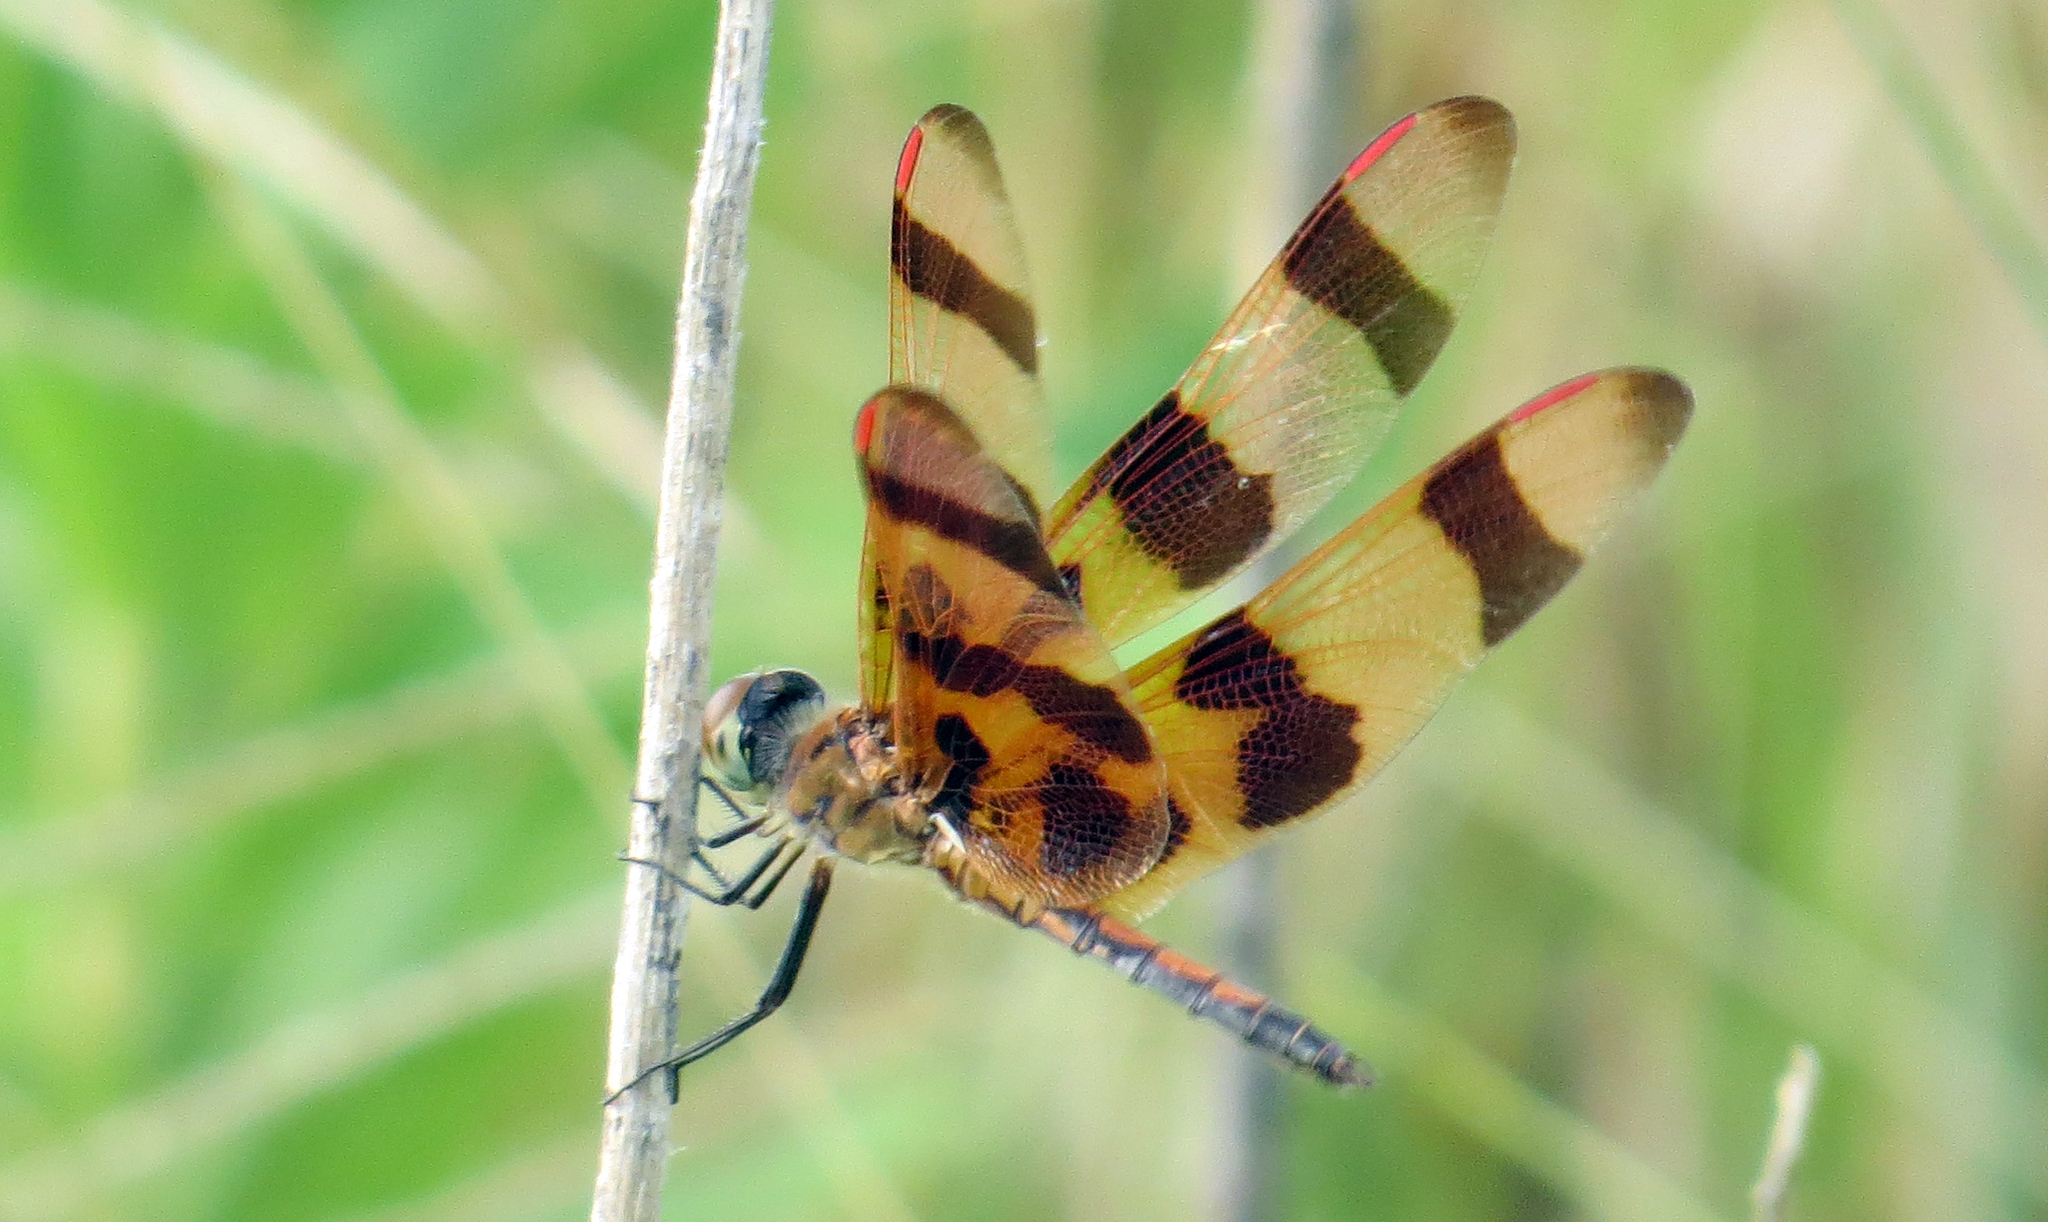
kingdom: Animalia
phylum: Arthropoda
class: Insecta
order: Odonata
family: Libellulidae
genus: Celithemis
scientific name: Celithemis eponina
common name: Halloween pennant
